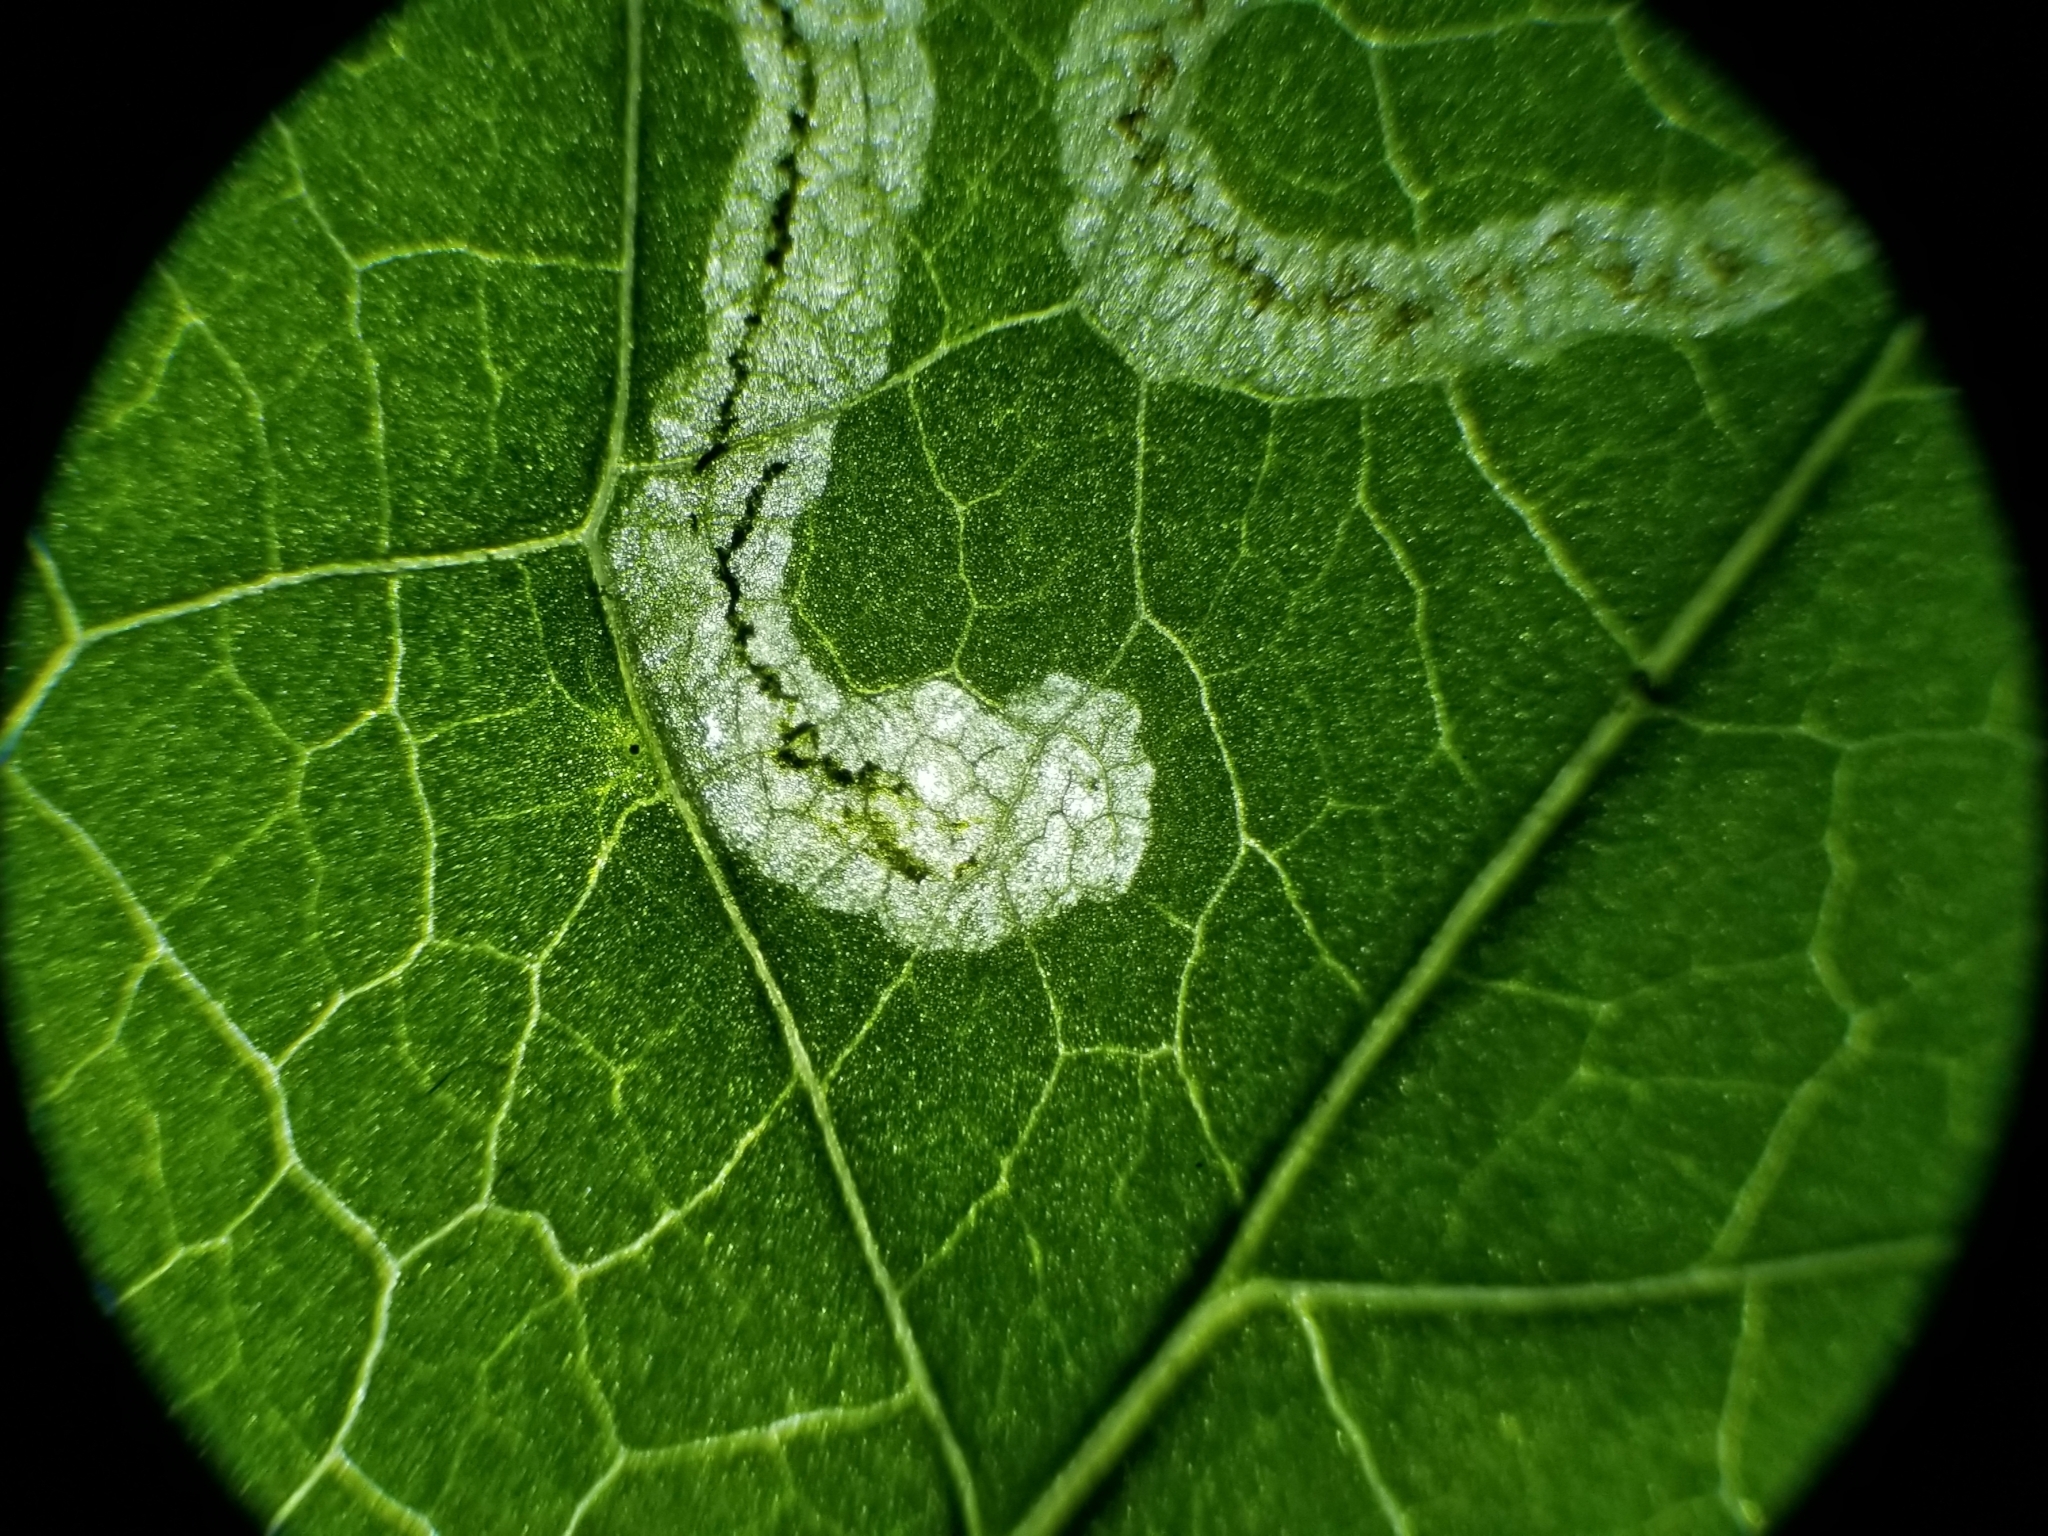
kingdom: Animalia
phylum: Arthropoda
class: Insecta
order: Diptera
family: Agromyzidae
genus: Liriomyza
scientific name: Liriomyza brassicae
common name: Serpentine leaf miner
